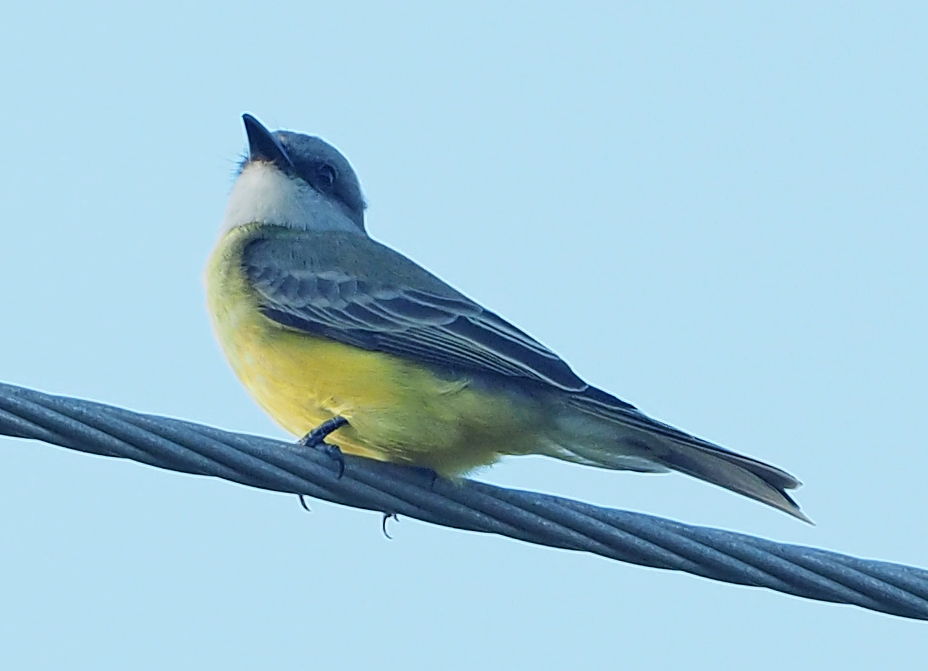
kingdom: Animalia
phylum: Chordata
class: Aves
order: Passeriformes
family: Tyrannidae
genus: Tyrannus
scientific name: Tyrannus melancholicus
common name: Tropical kingbird
